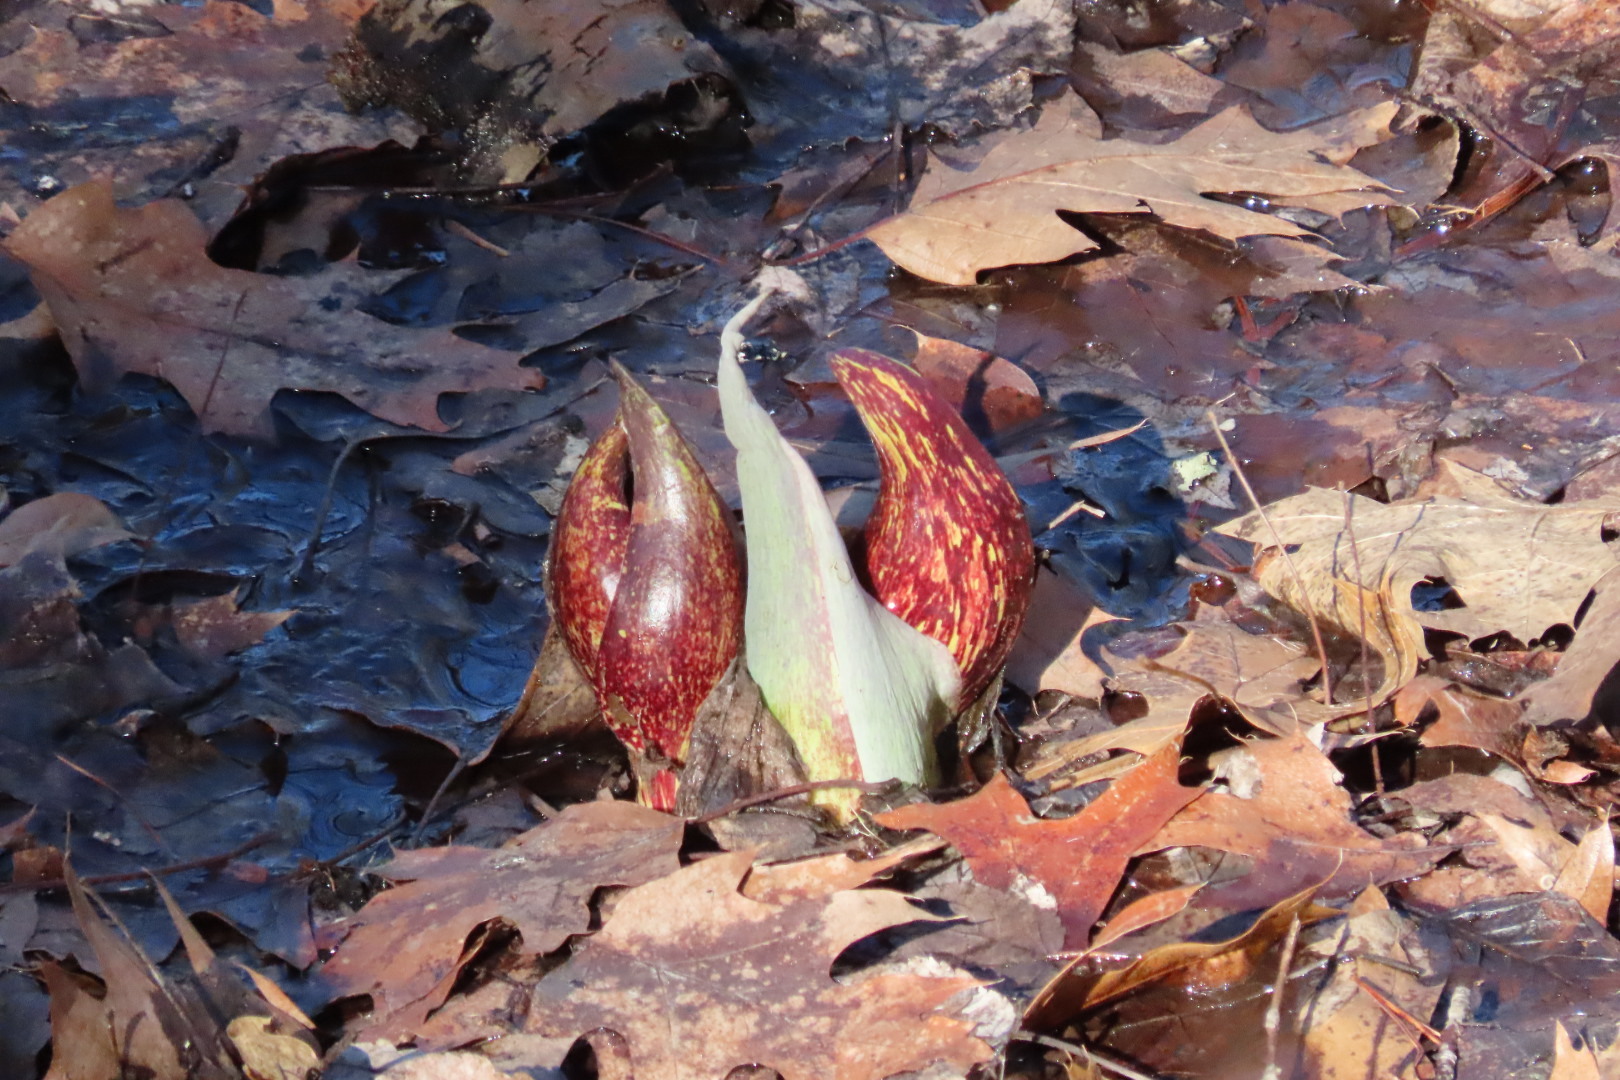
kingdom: Plantae
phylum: Tracheophyta
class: Liliopsida
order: Alismatales
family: Araceae
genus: Symplocarpus
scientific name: Symplocarpus foetidus
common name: Eastern skunk cabbage
